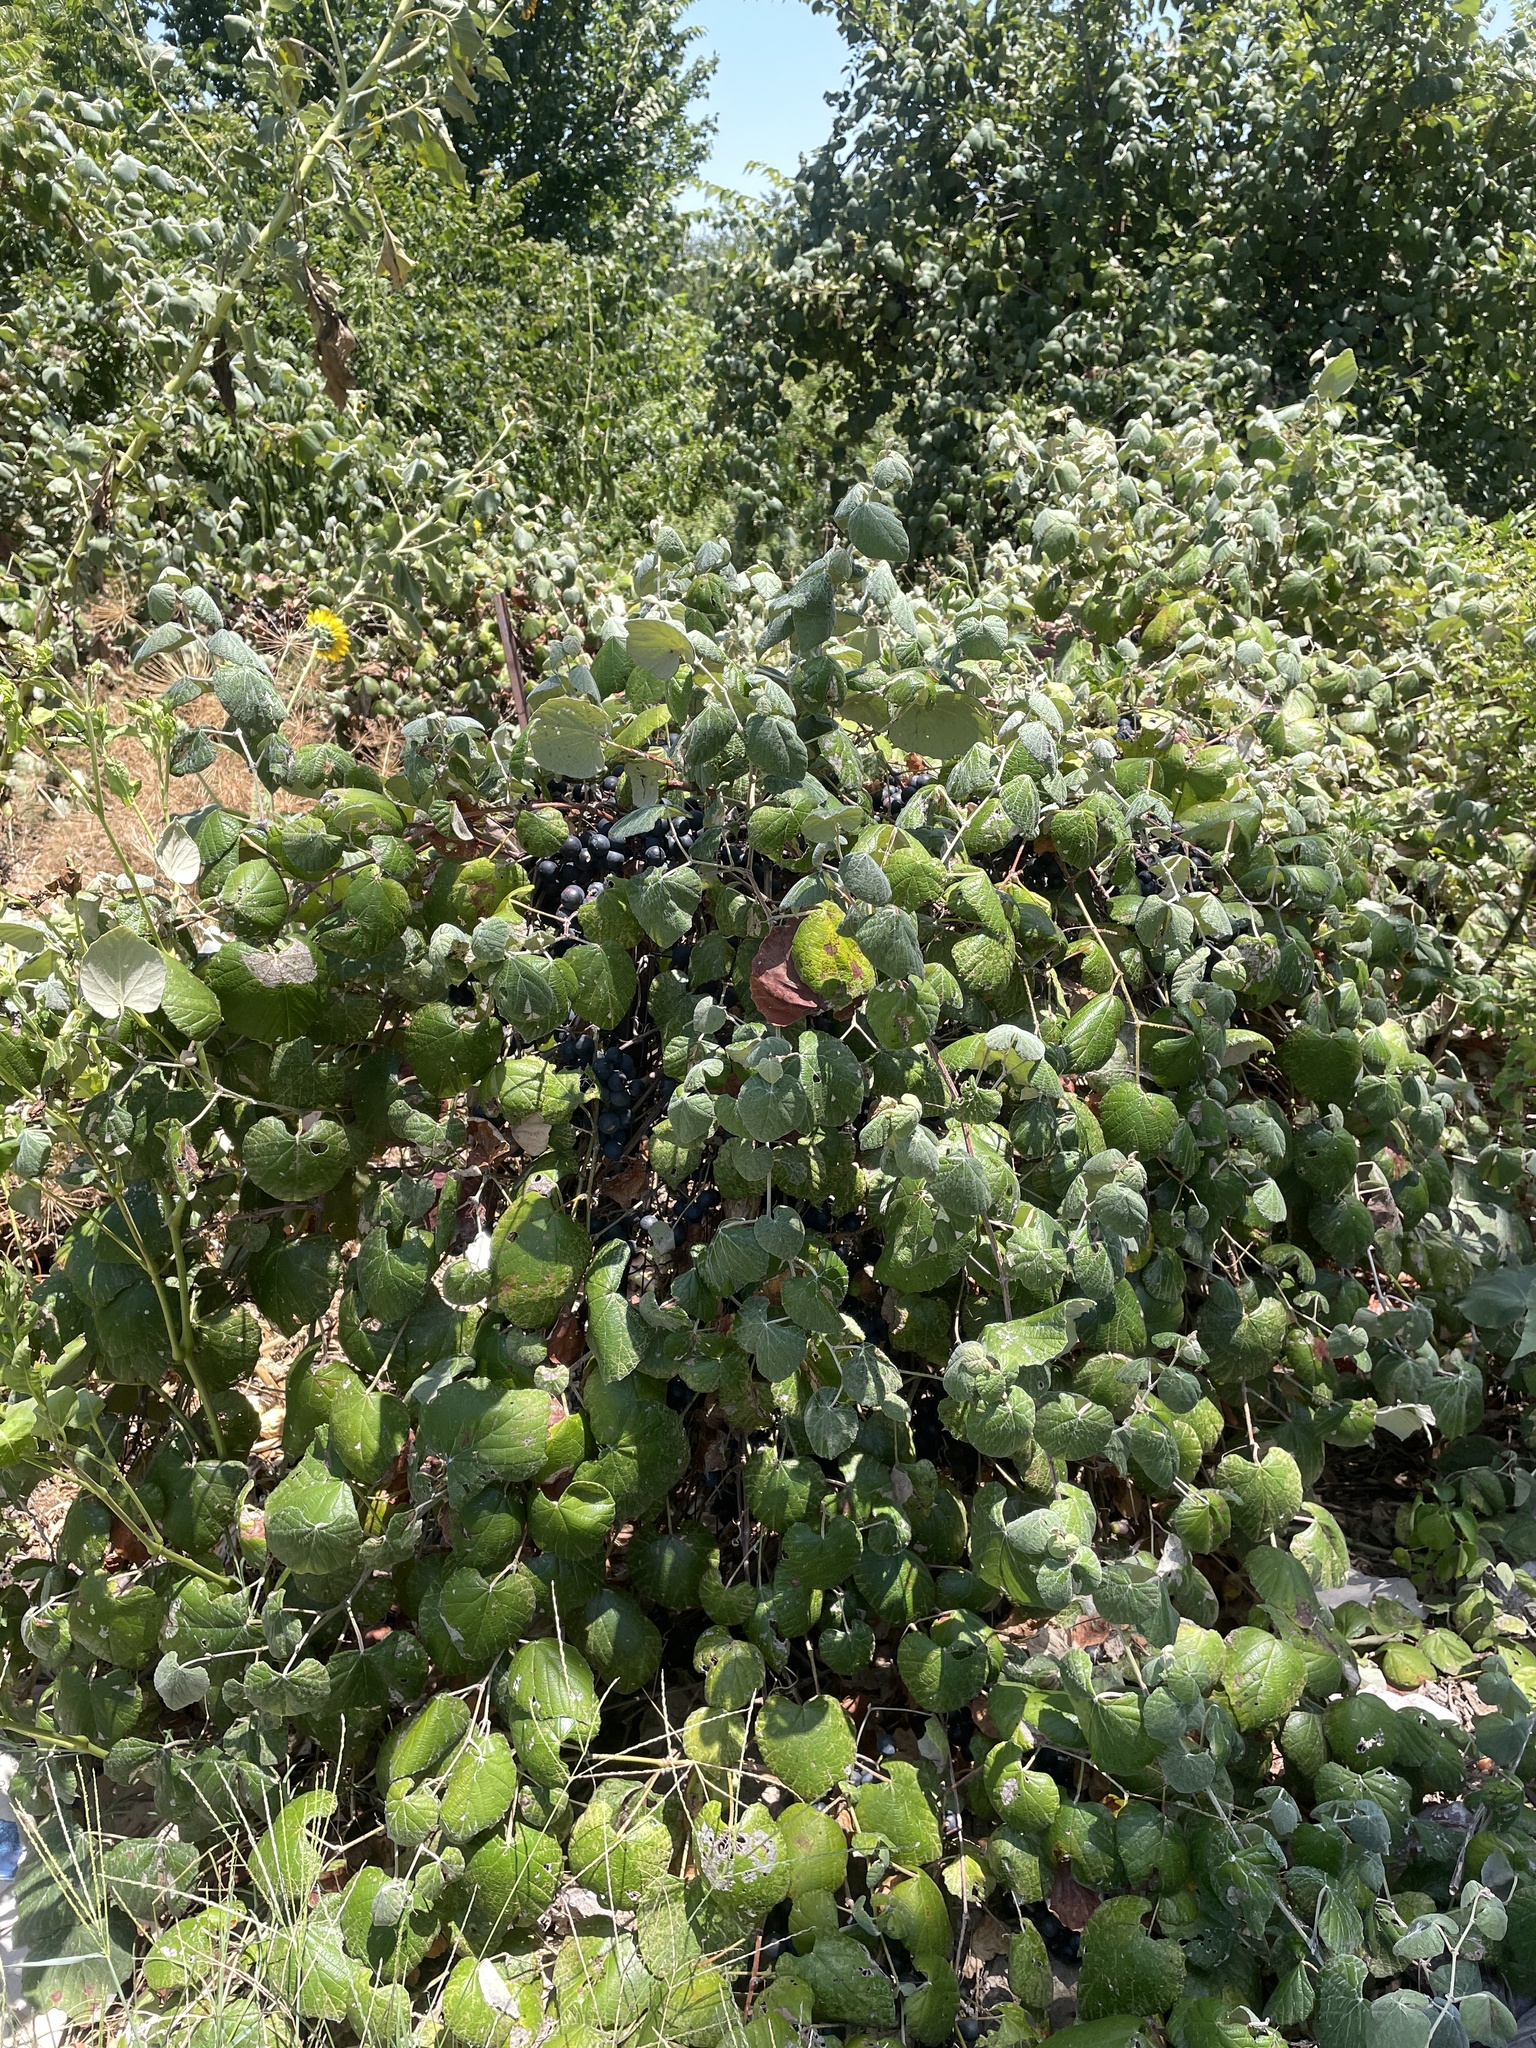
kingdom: Plantae
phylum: Tracheophyta
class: Magnoliopsida
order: Vitales
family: Vitaceae
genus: Vitis
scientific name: Vitis mustangensis
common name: Mustang grape
